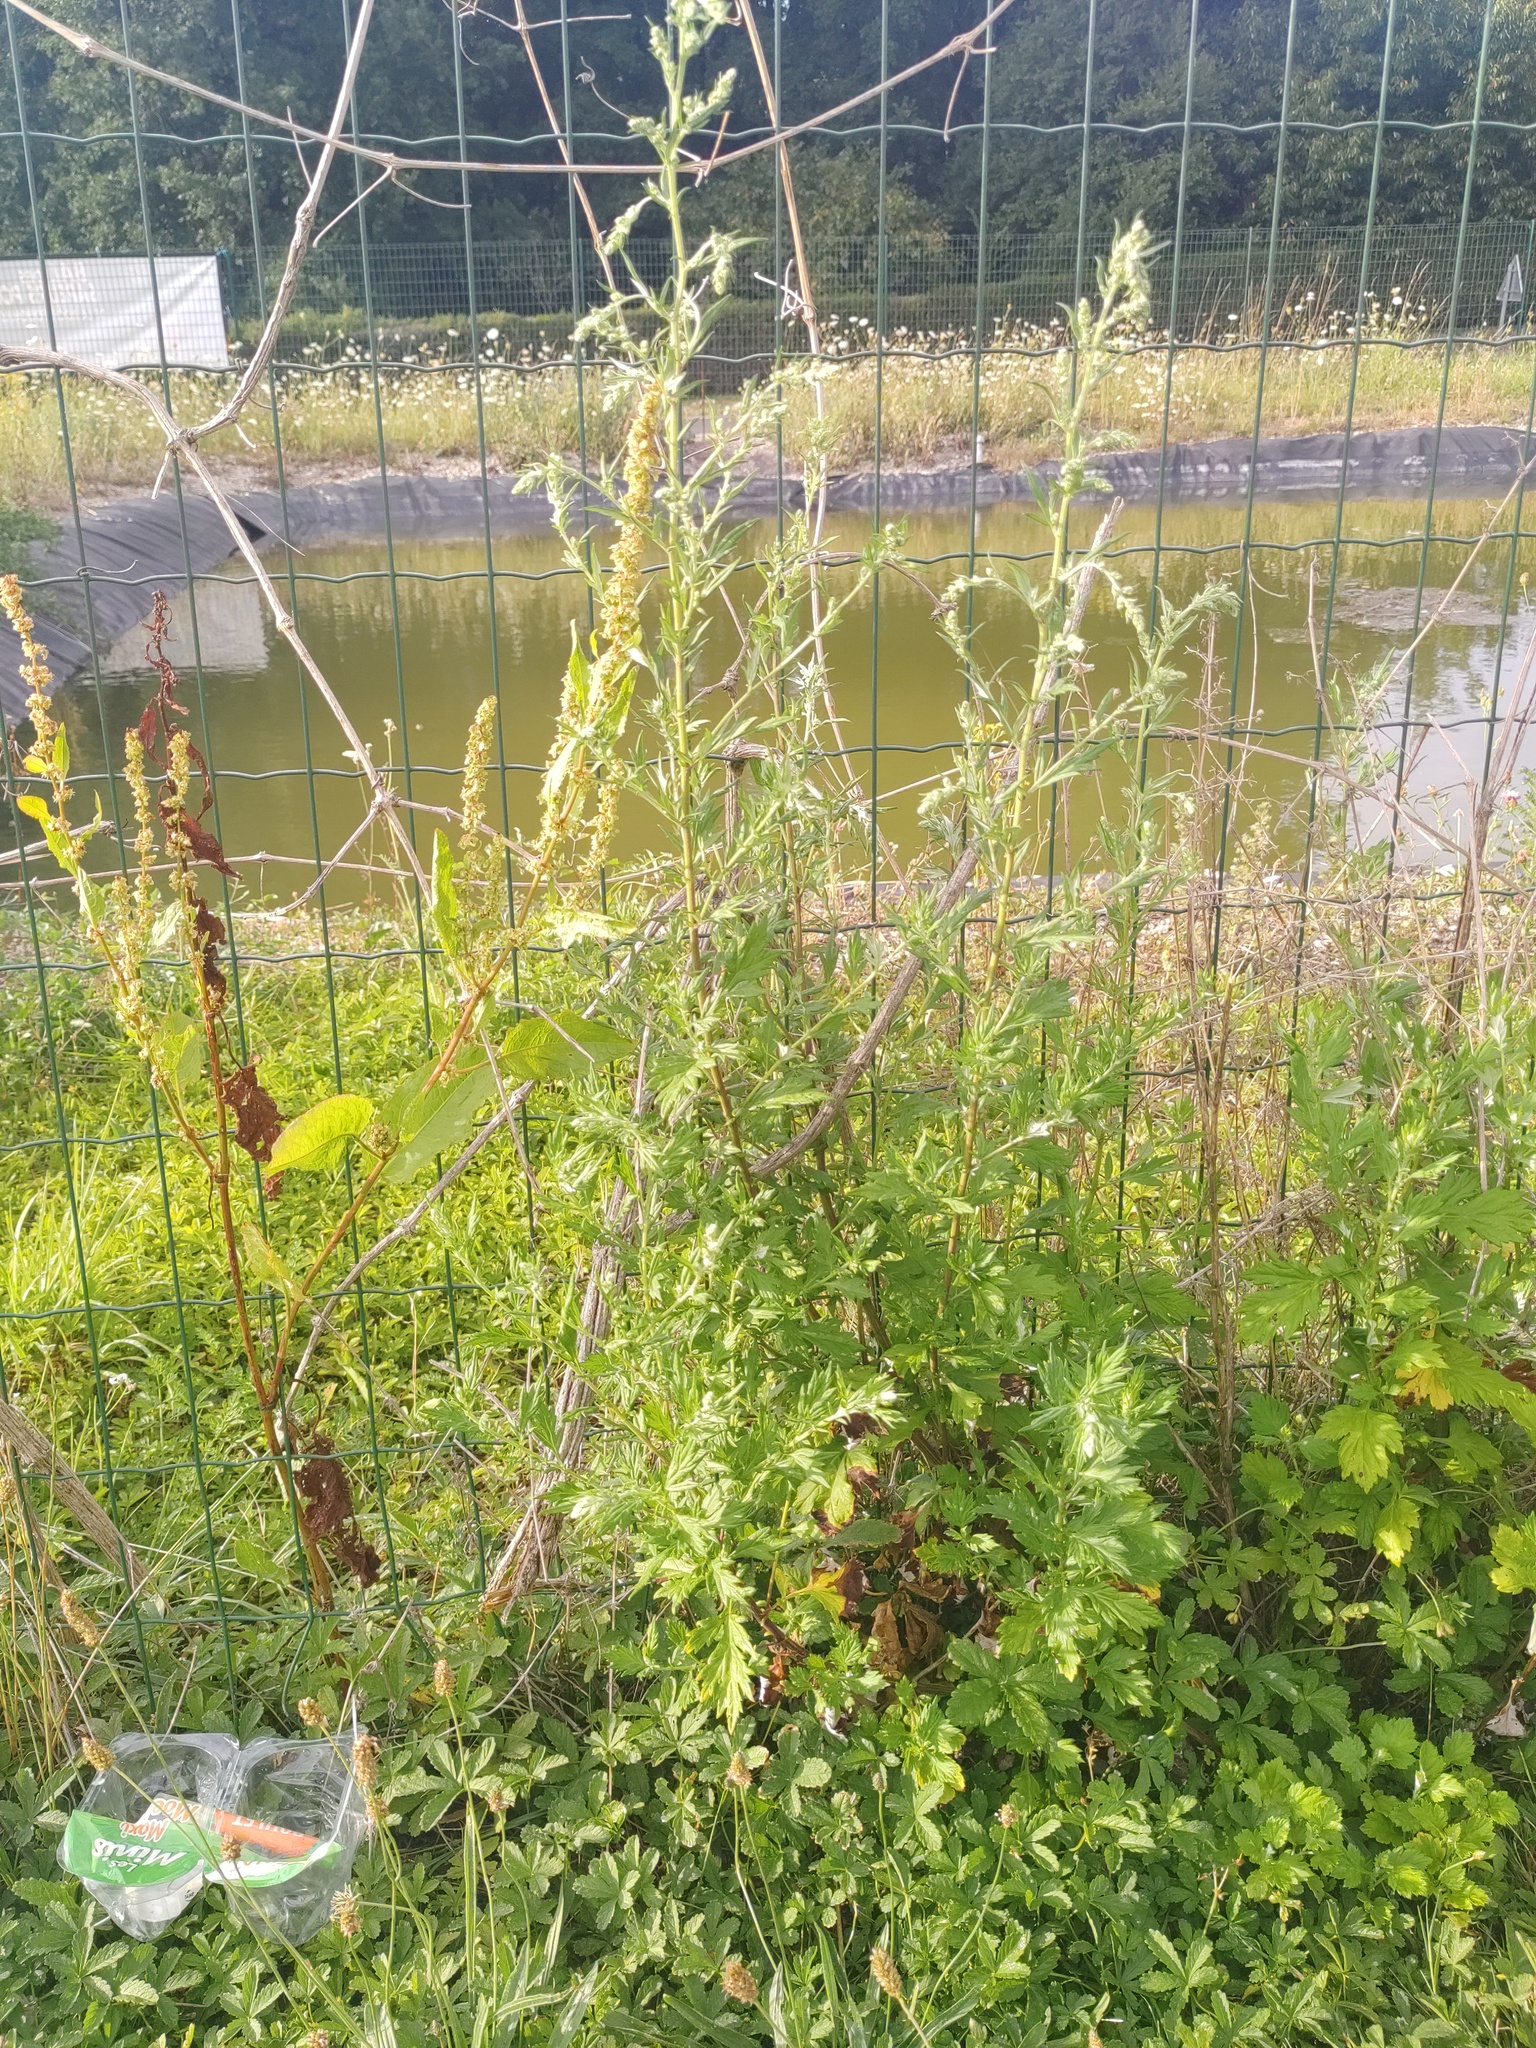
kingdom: Plantae
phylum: Tracheophyta
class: Magnoliopsida
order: Asterales
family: Asteraceae
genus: Artemisia
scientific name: Artemisia vulgaris
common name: Mugwort
